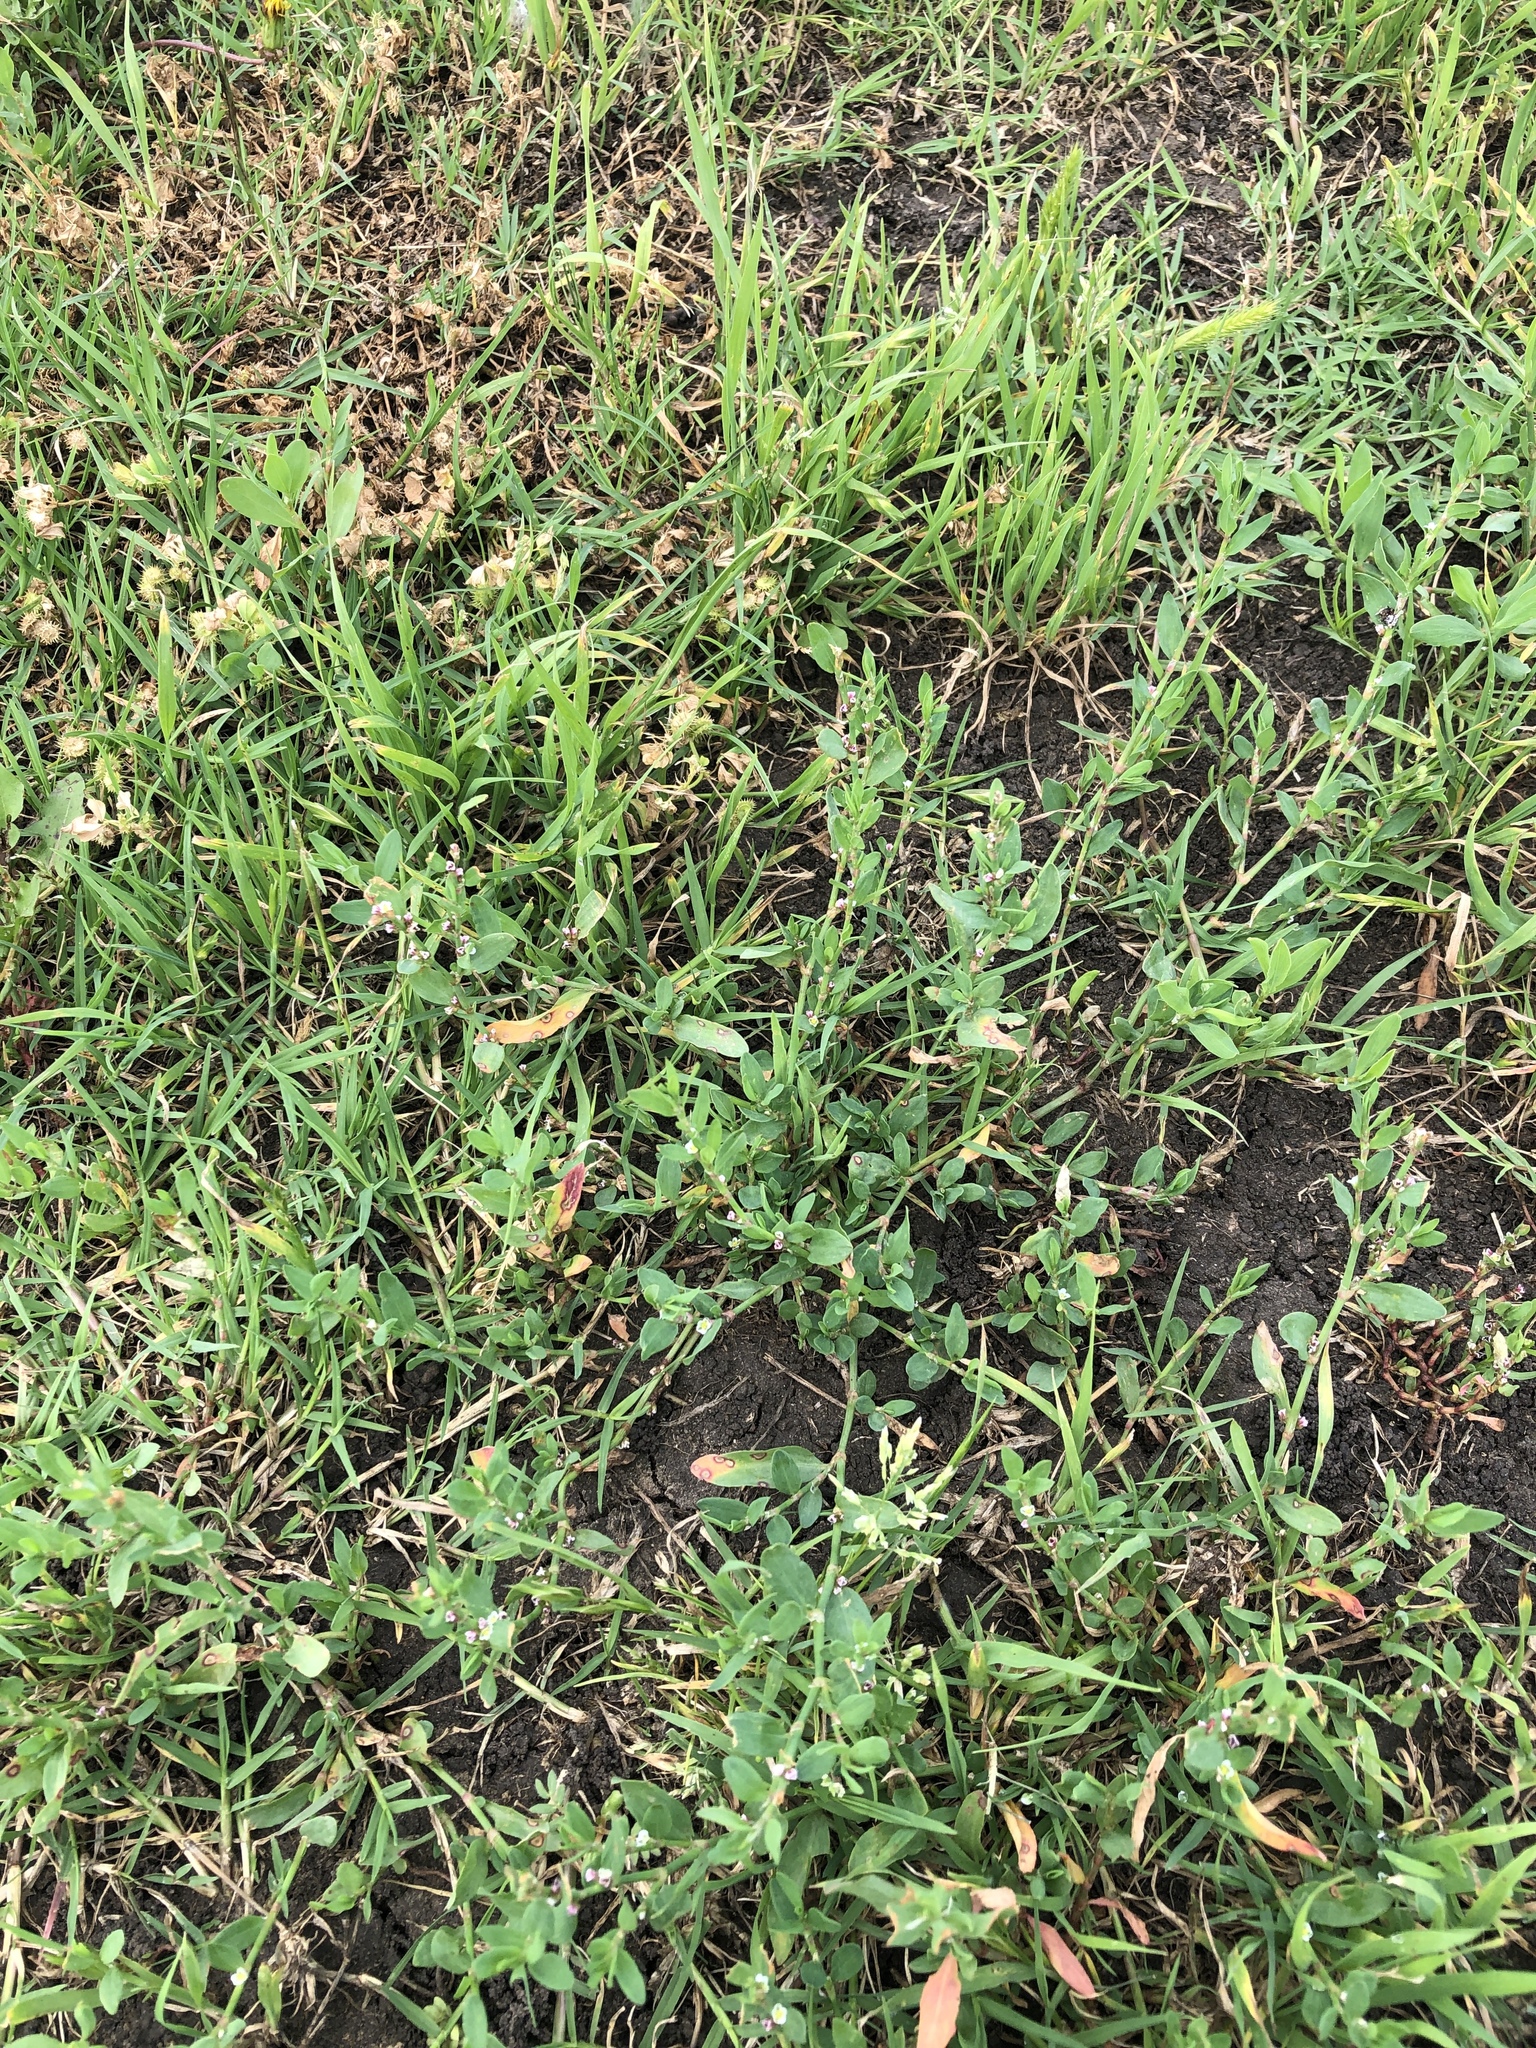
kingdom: Plantae
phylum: Tracheophyta
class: Magnoliopsida
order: Caryophyllales
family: Polygonaceae
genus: Polygonum
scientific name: Polygonum aviculare
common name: Prostrate knotweed
